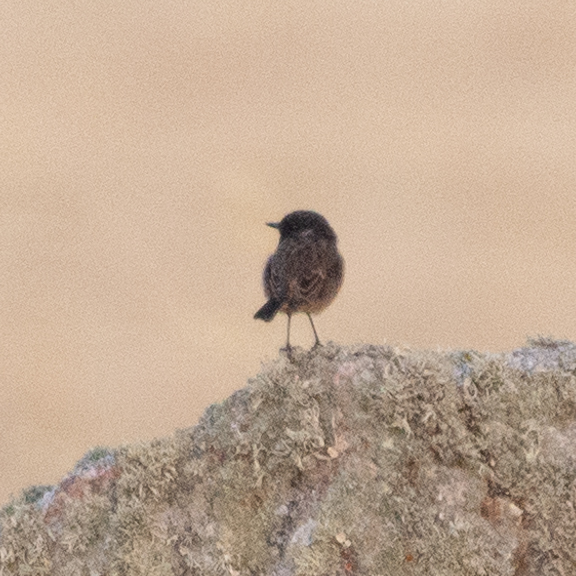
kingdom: Animalia
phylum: Chordata
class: Aves
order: Passeriformes
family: Muscicapidae
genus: Saxicola
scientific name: Saxicola rubicola
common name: European stonechat
